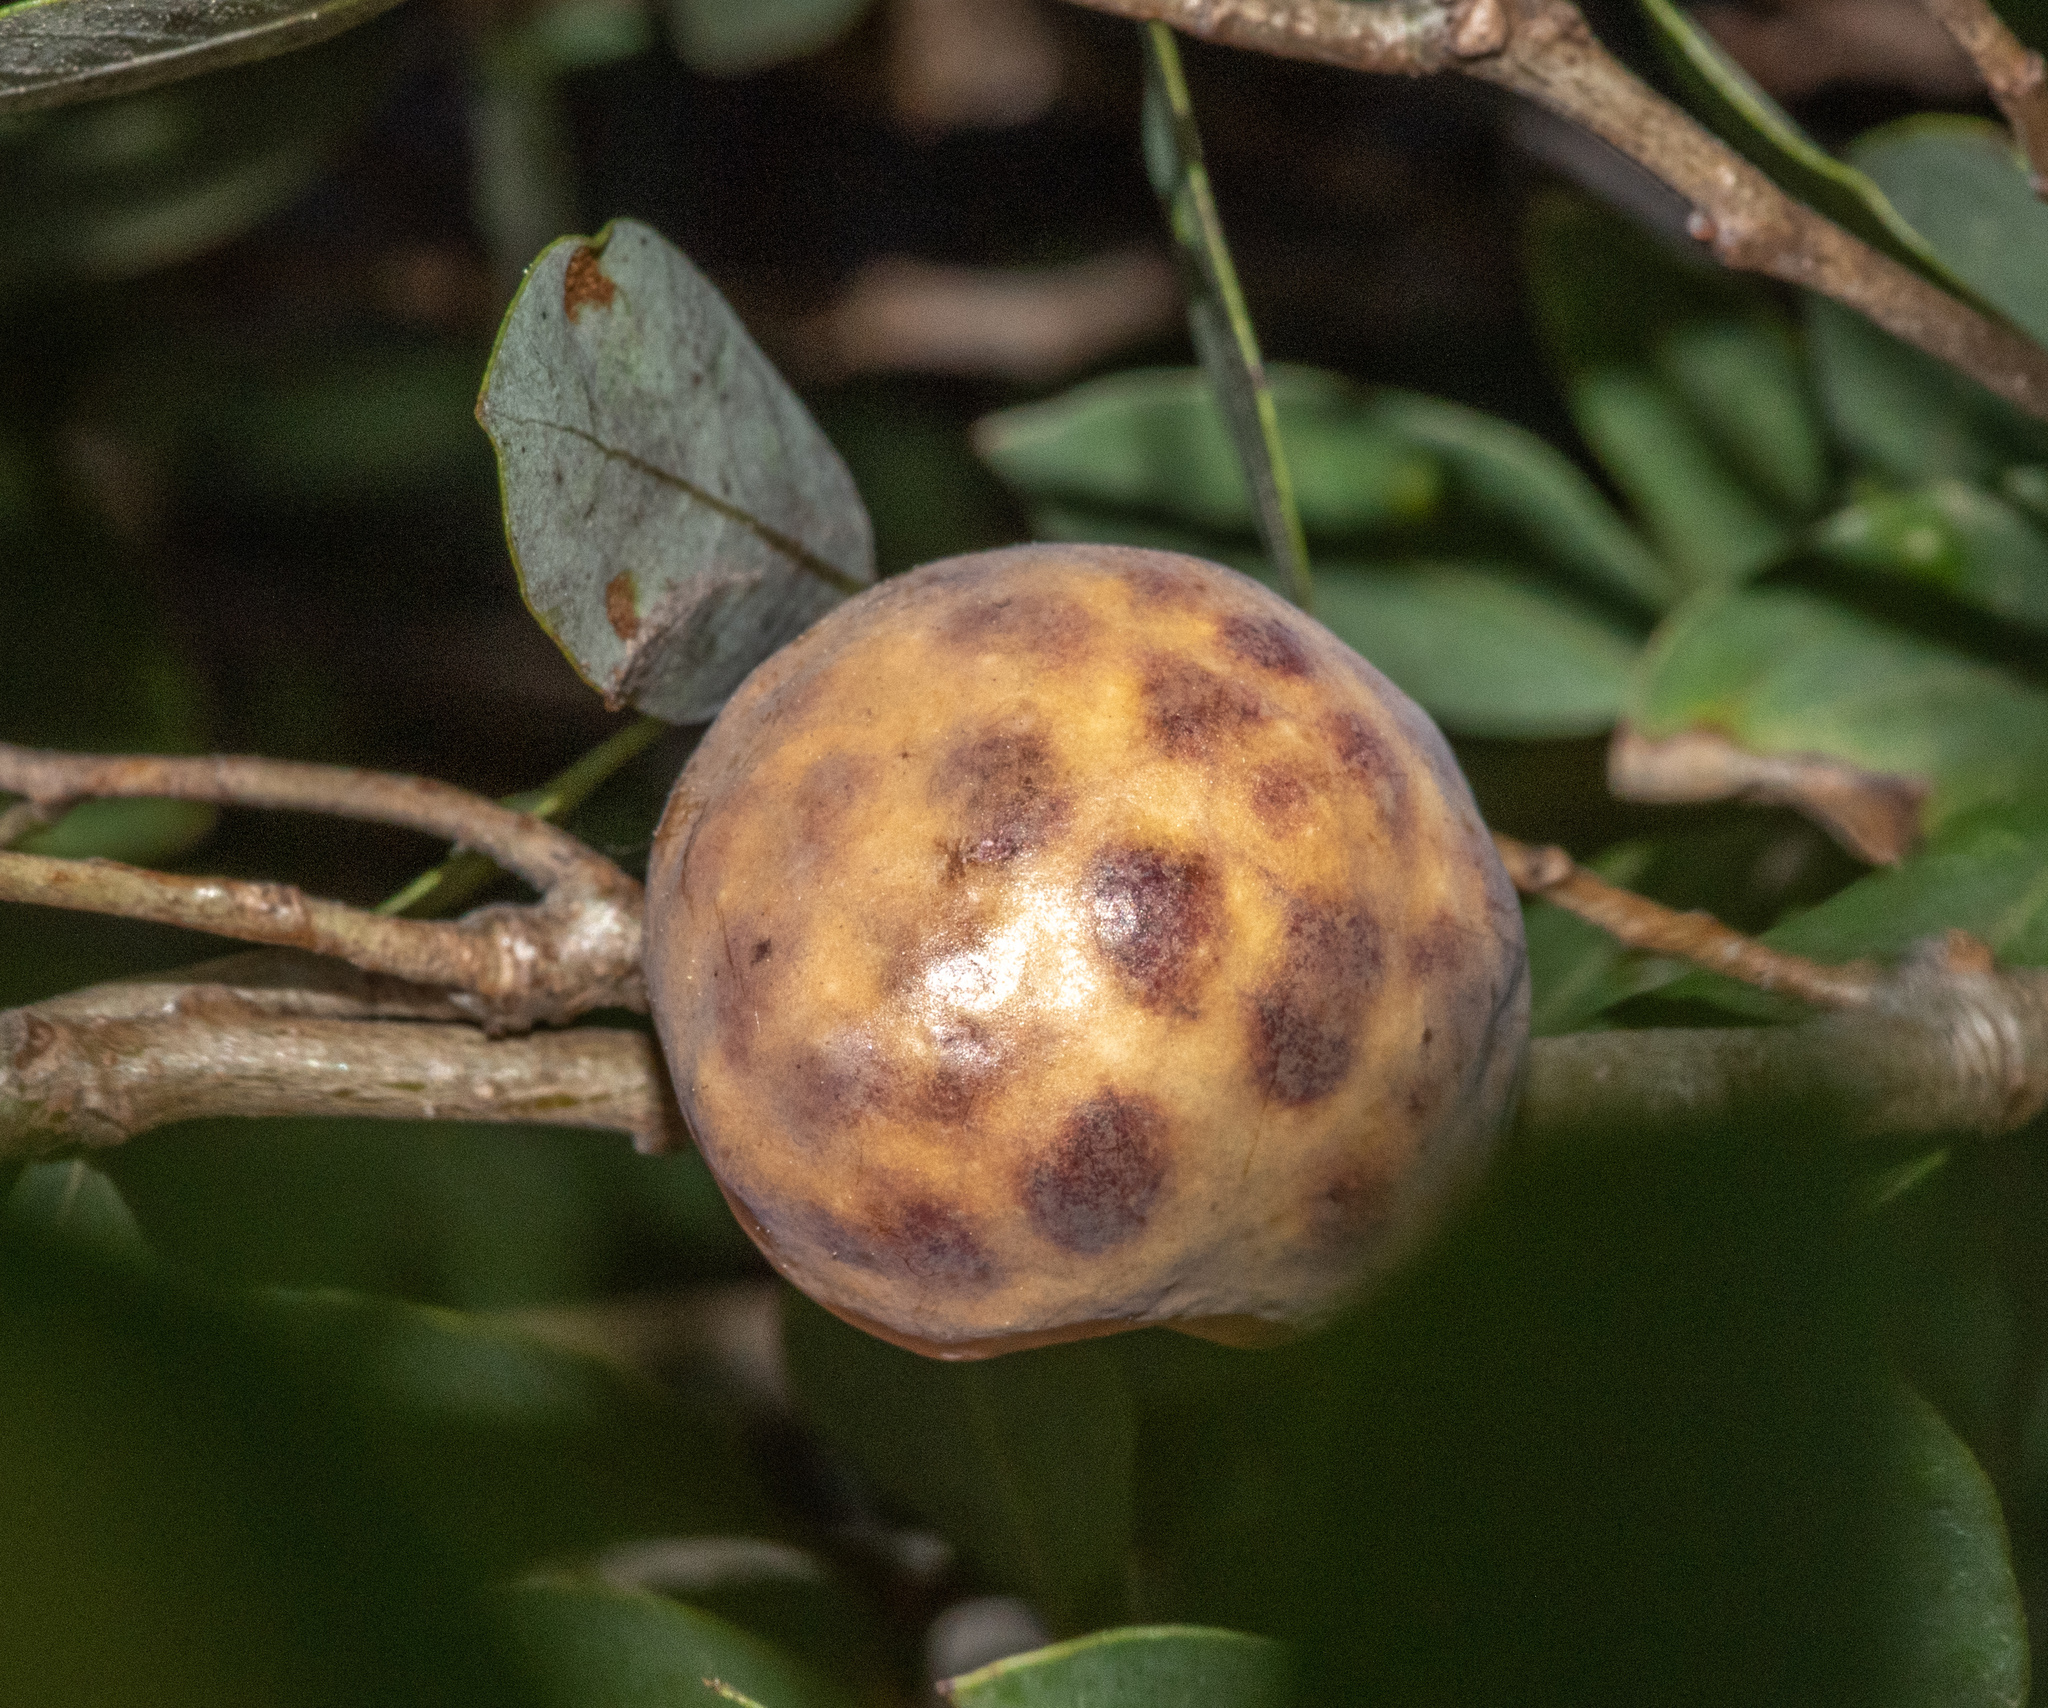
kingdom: Animalia
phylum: Arthropoda
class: Insecta
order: Hymenoptera
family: Cynipidae
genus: Andricus
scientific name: Andricus
